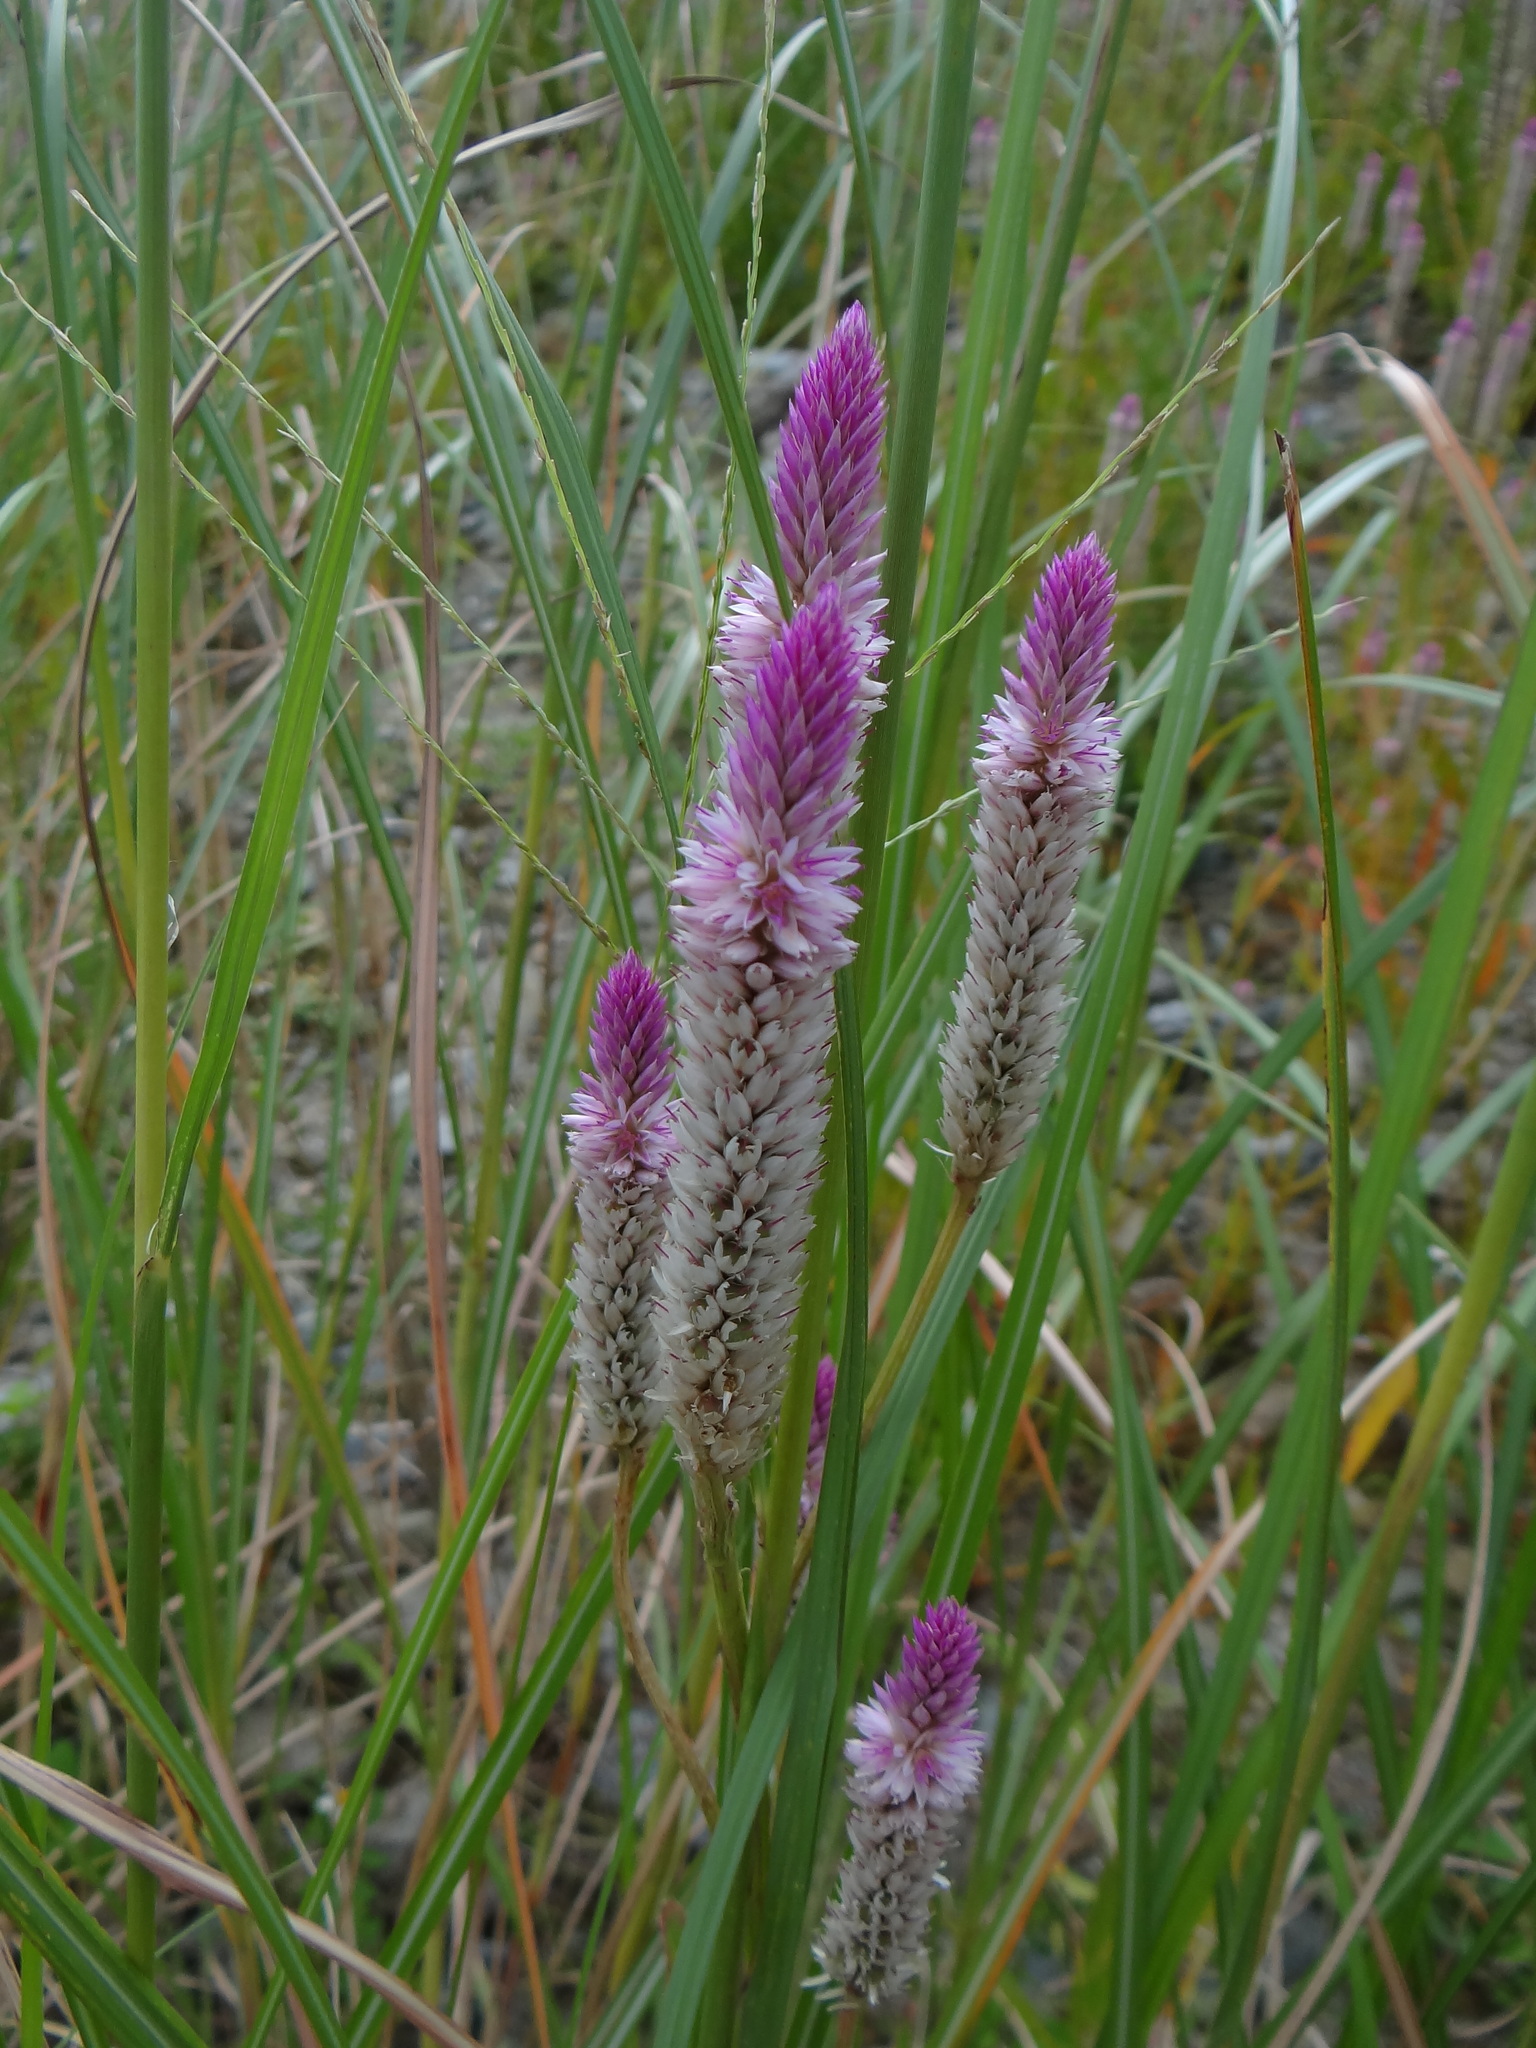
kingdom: Plantae
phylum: Tracheophyta
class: Magnoliopsida
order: Caryophyllales
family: Amaranthaceae
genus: Celosia
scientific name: Celosia argentea
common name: Feather cockscomb
